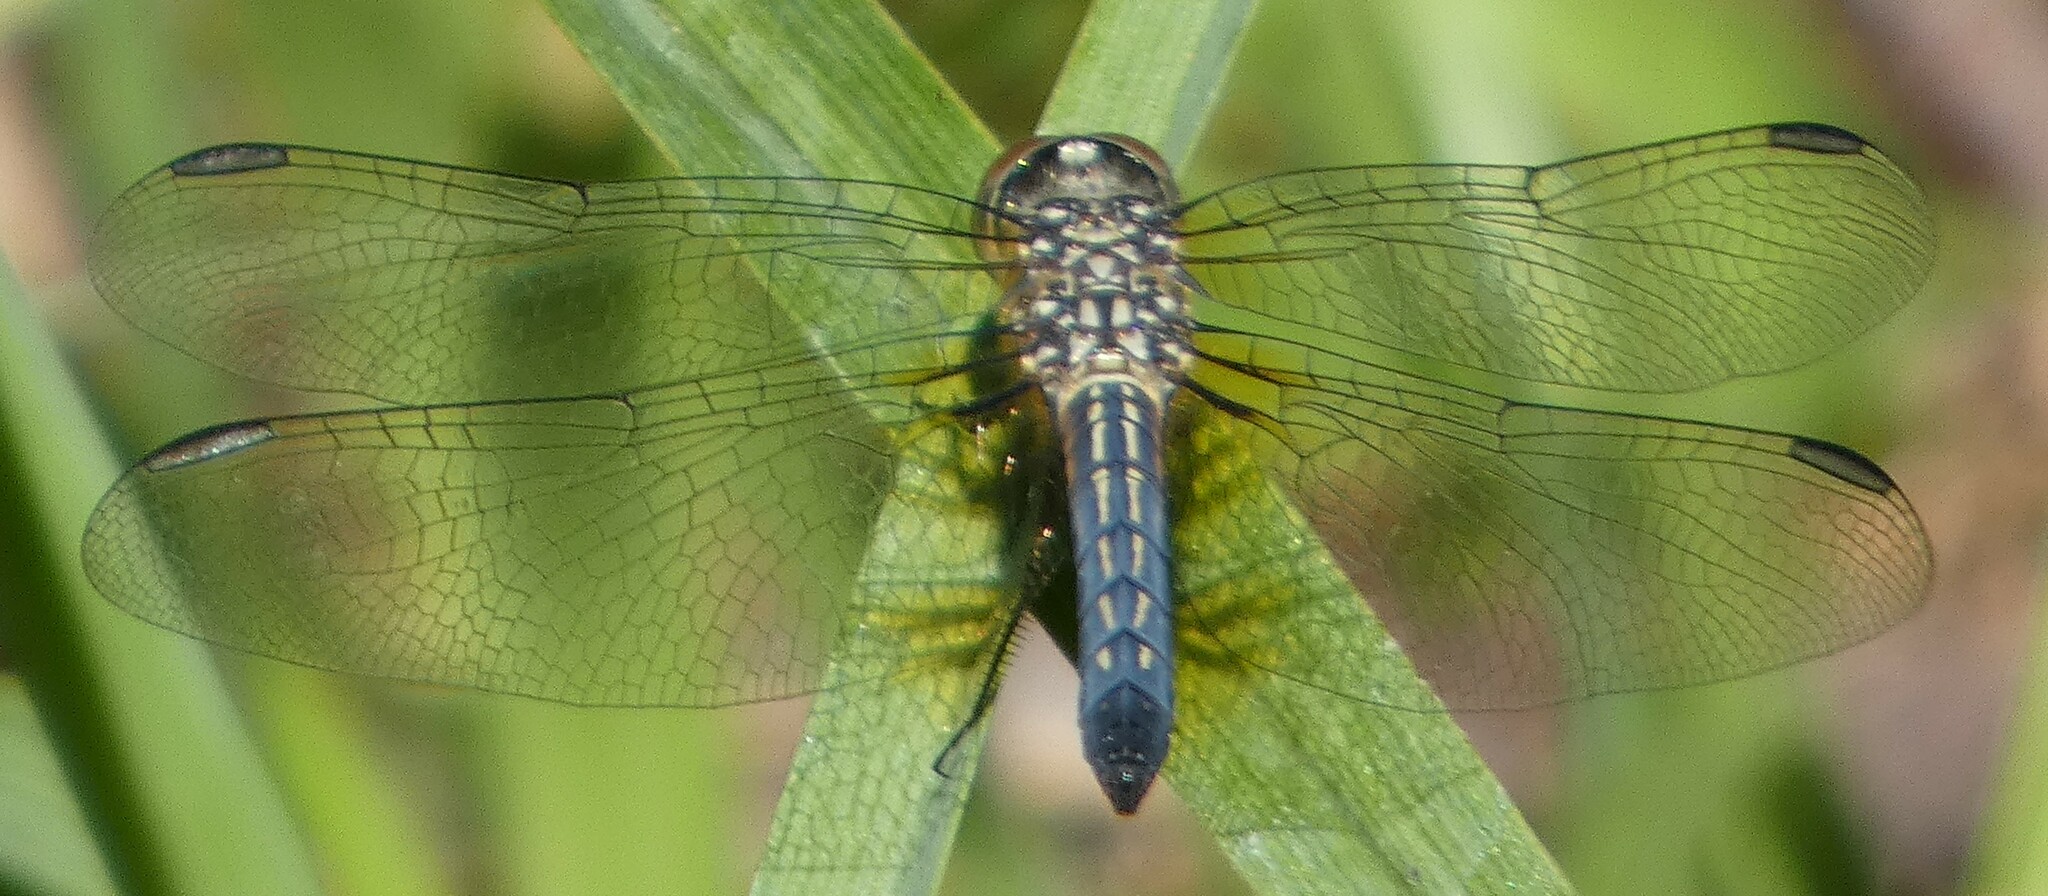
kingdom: Animalia
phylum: Arthropoda
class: Insecta
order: Odonata
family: Libellulidae
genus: Pachydiplax
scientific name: Pachydiplax longipennis
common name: Blue dasher
